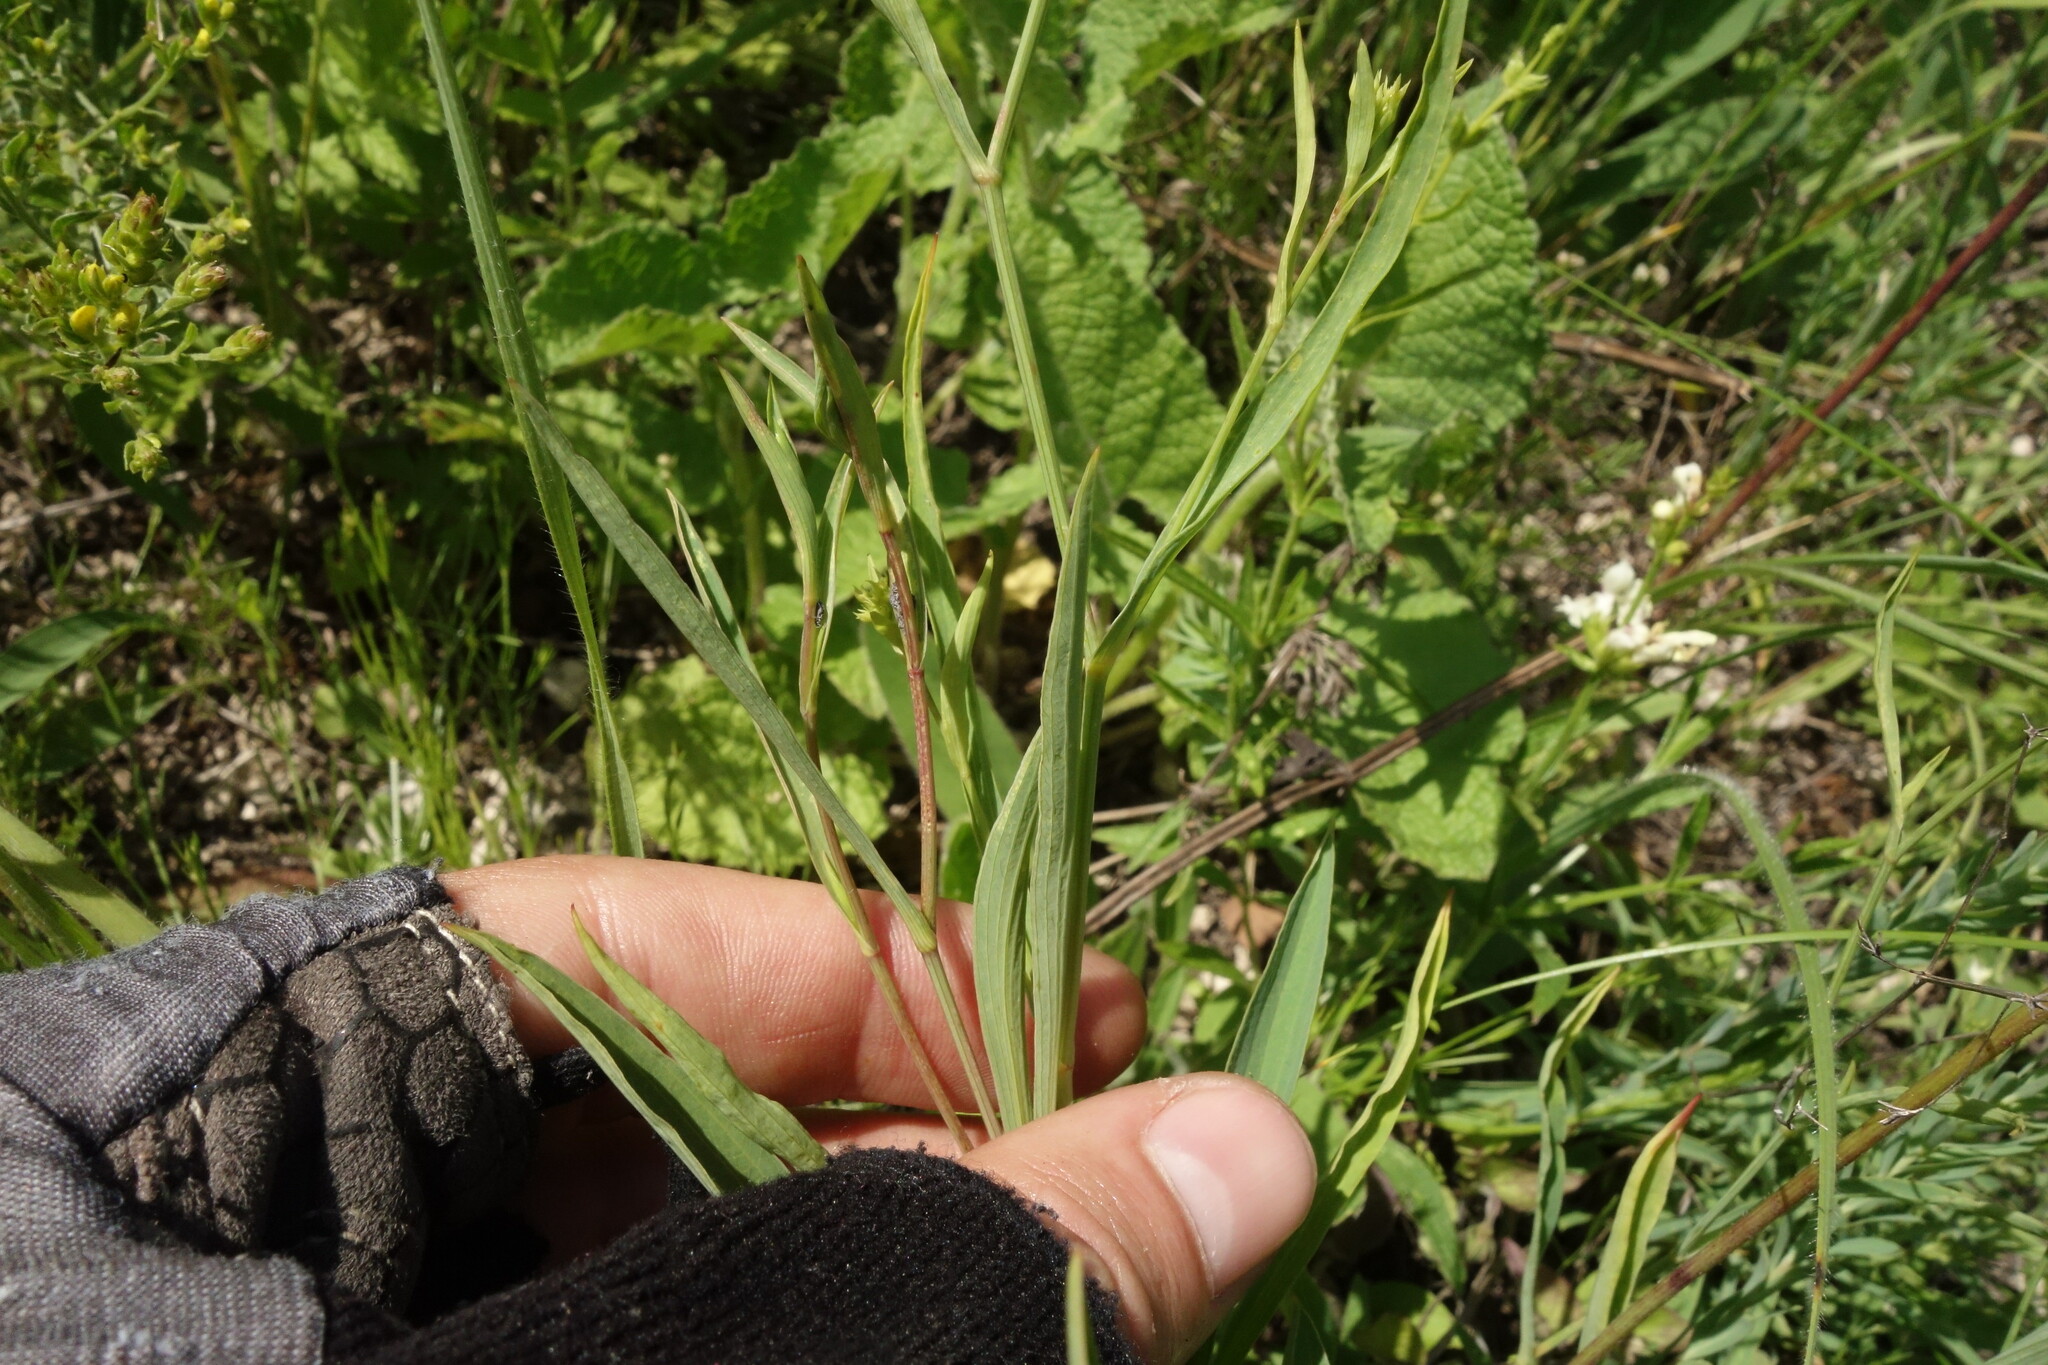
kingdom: Plantae
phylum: Tracheophyta
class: Magnoliopsida
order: Apiales
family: Apiaceae
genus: Bupleurum
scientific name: Bupleurum falcatum
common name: Sickle-leaved hare's-ear
